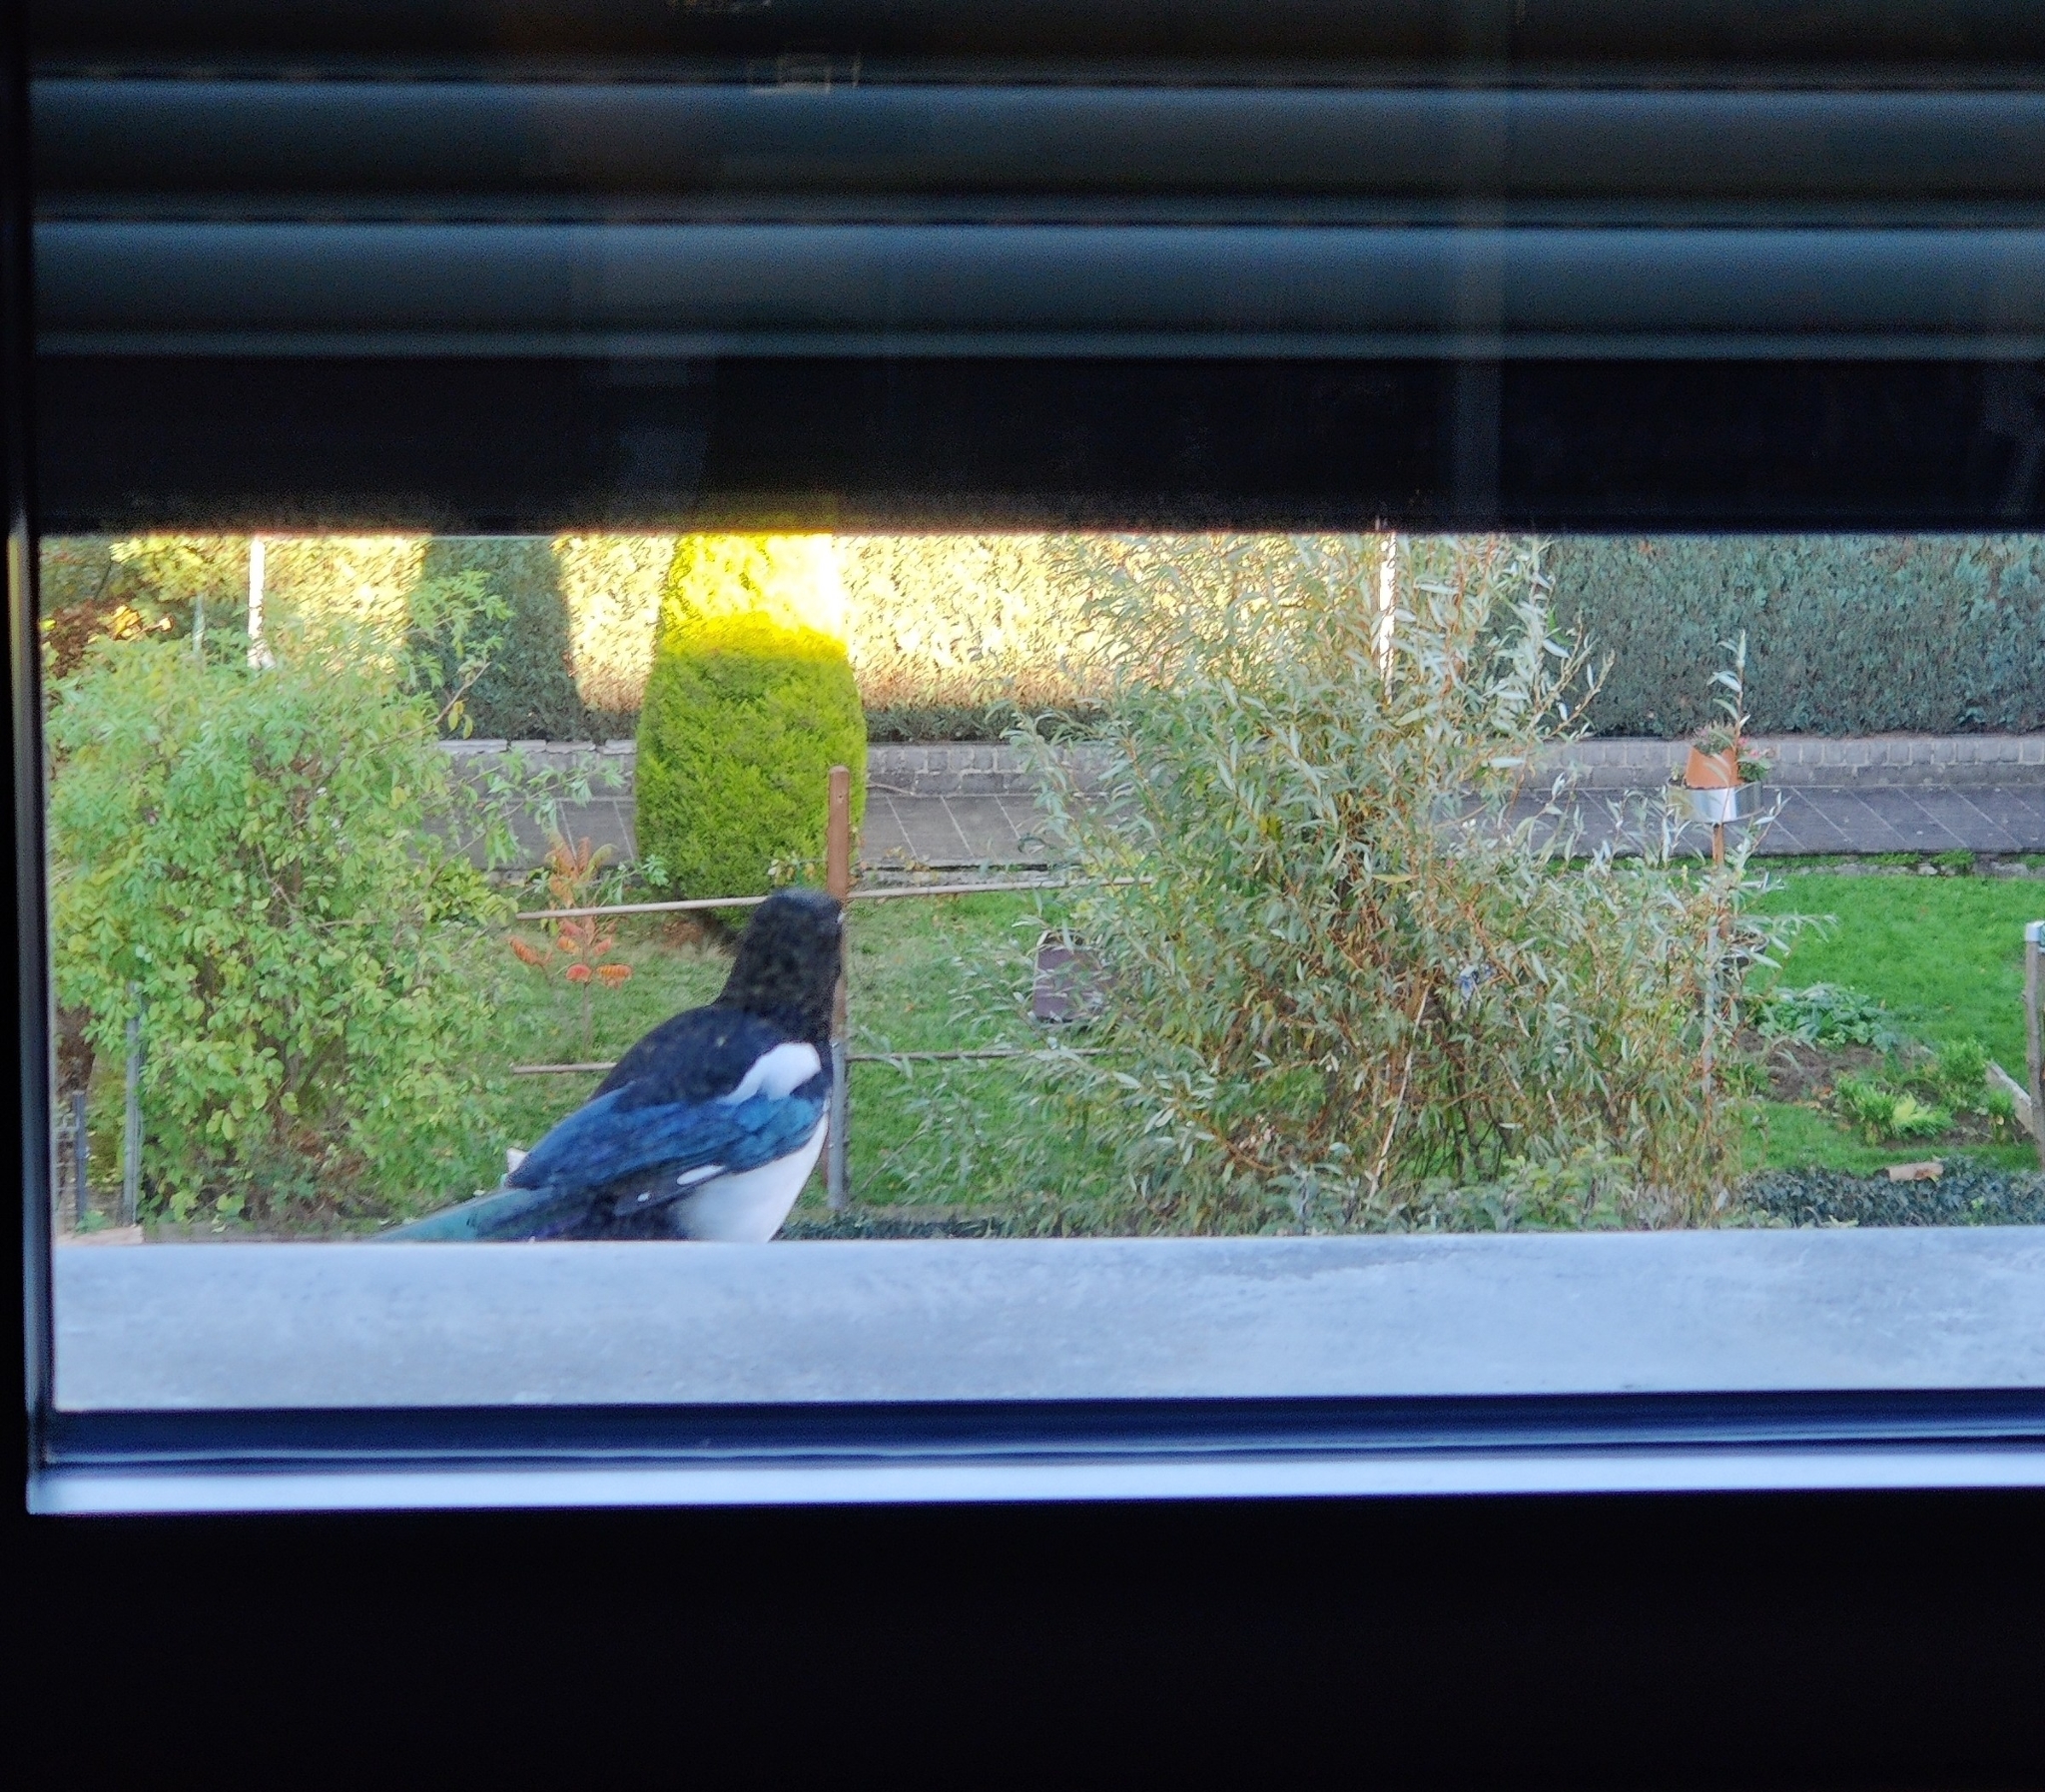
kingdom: Animalia
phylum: Chordata
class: Aves
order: Passeriformes
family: Corvidae
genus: Pica
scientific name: Pica pica
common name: Eurasian magpie
